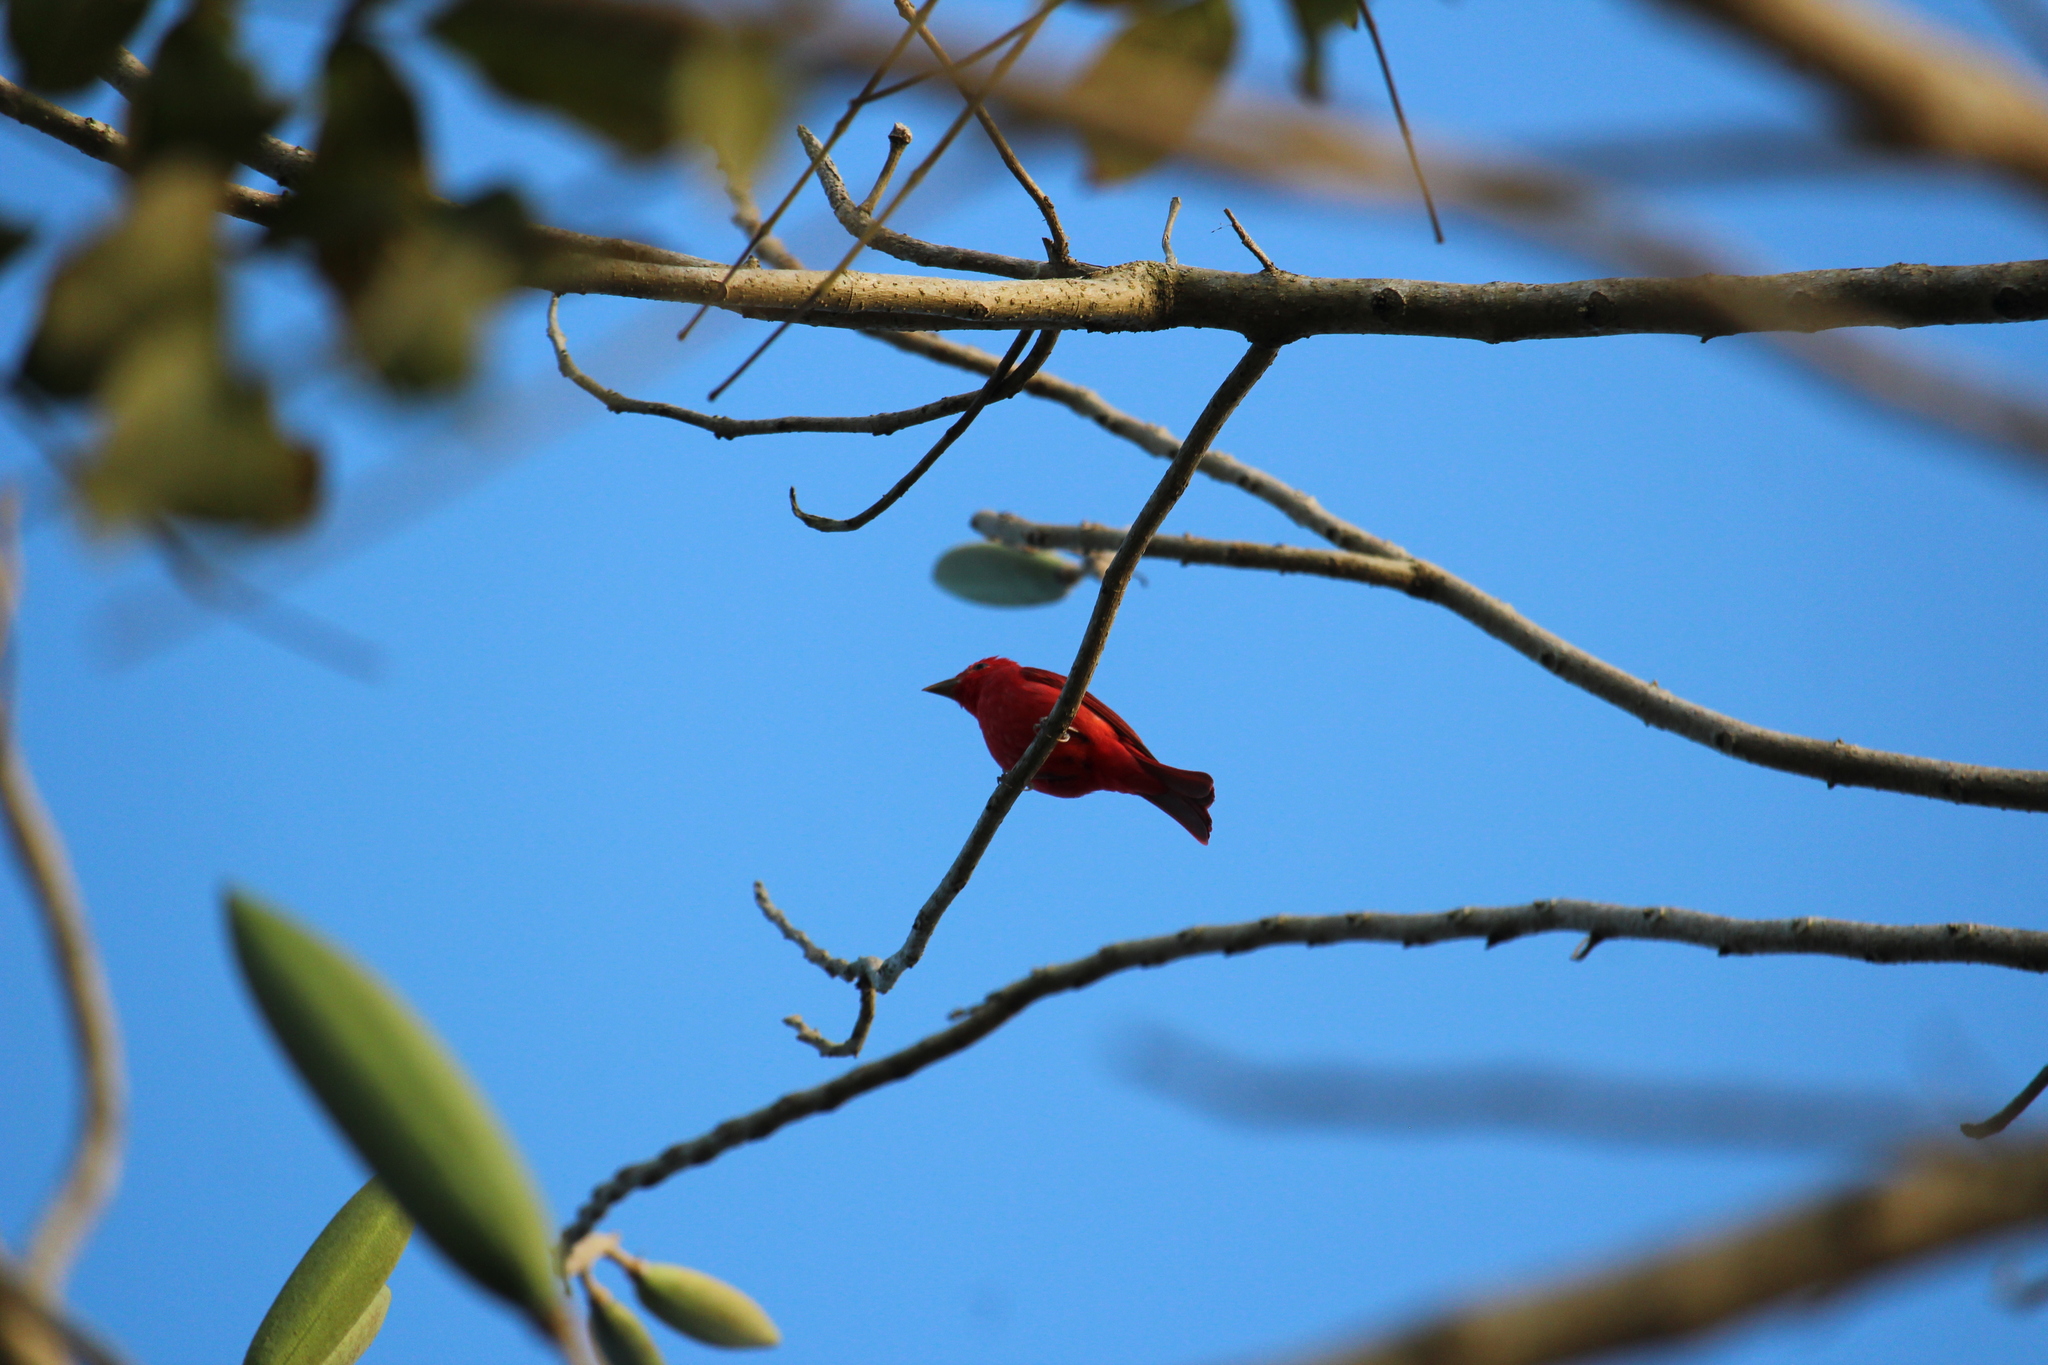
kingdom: Animalia
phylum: Chordata
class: Aves
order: Passeriformes
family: Cardinalidae
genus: Piranga
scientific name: Piranga rubra
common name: Summer tanager
